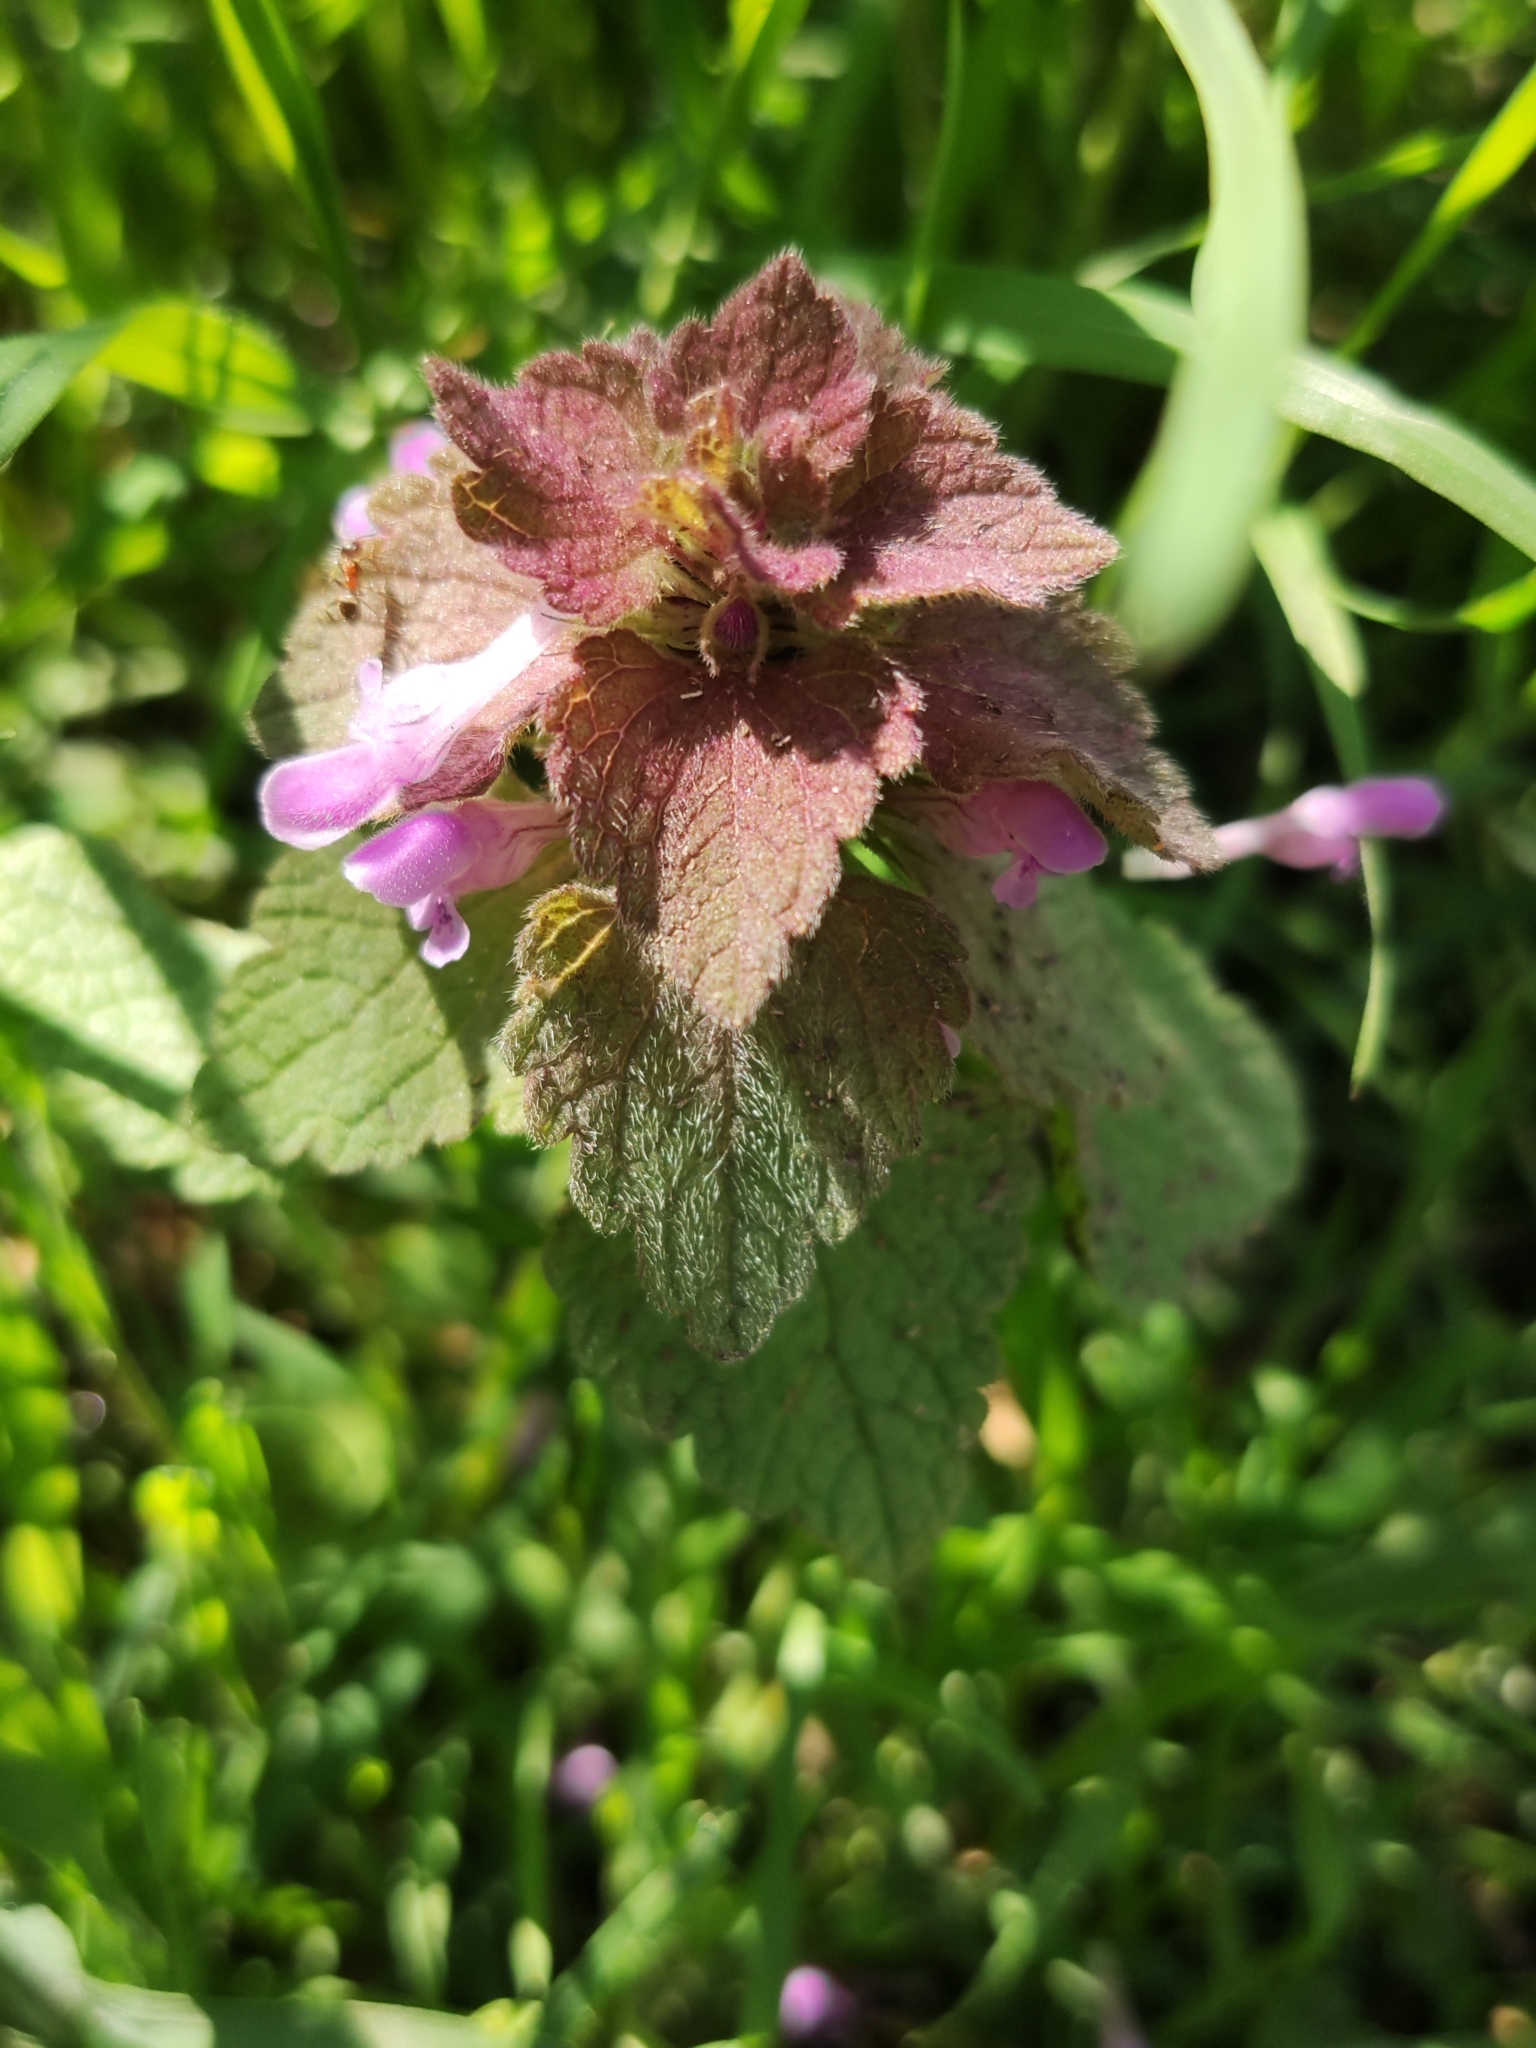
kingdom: Plantae
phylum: Tracheophyta
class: Magnoliopsida
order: Lamiales
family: Lamiaceae
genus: Lamium
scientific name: Lamium purpureum
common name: Red dead-nettle
